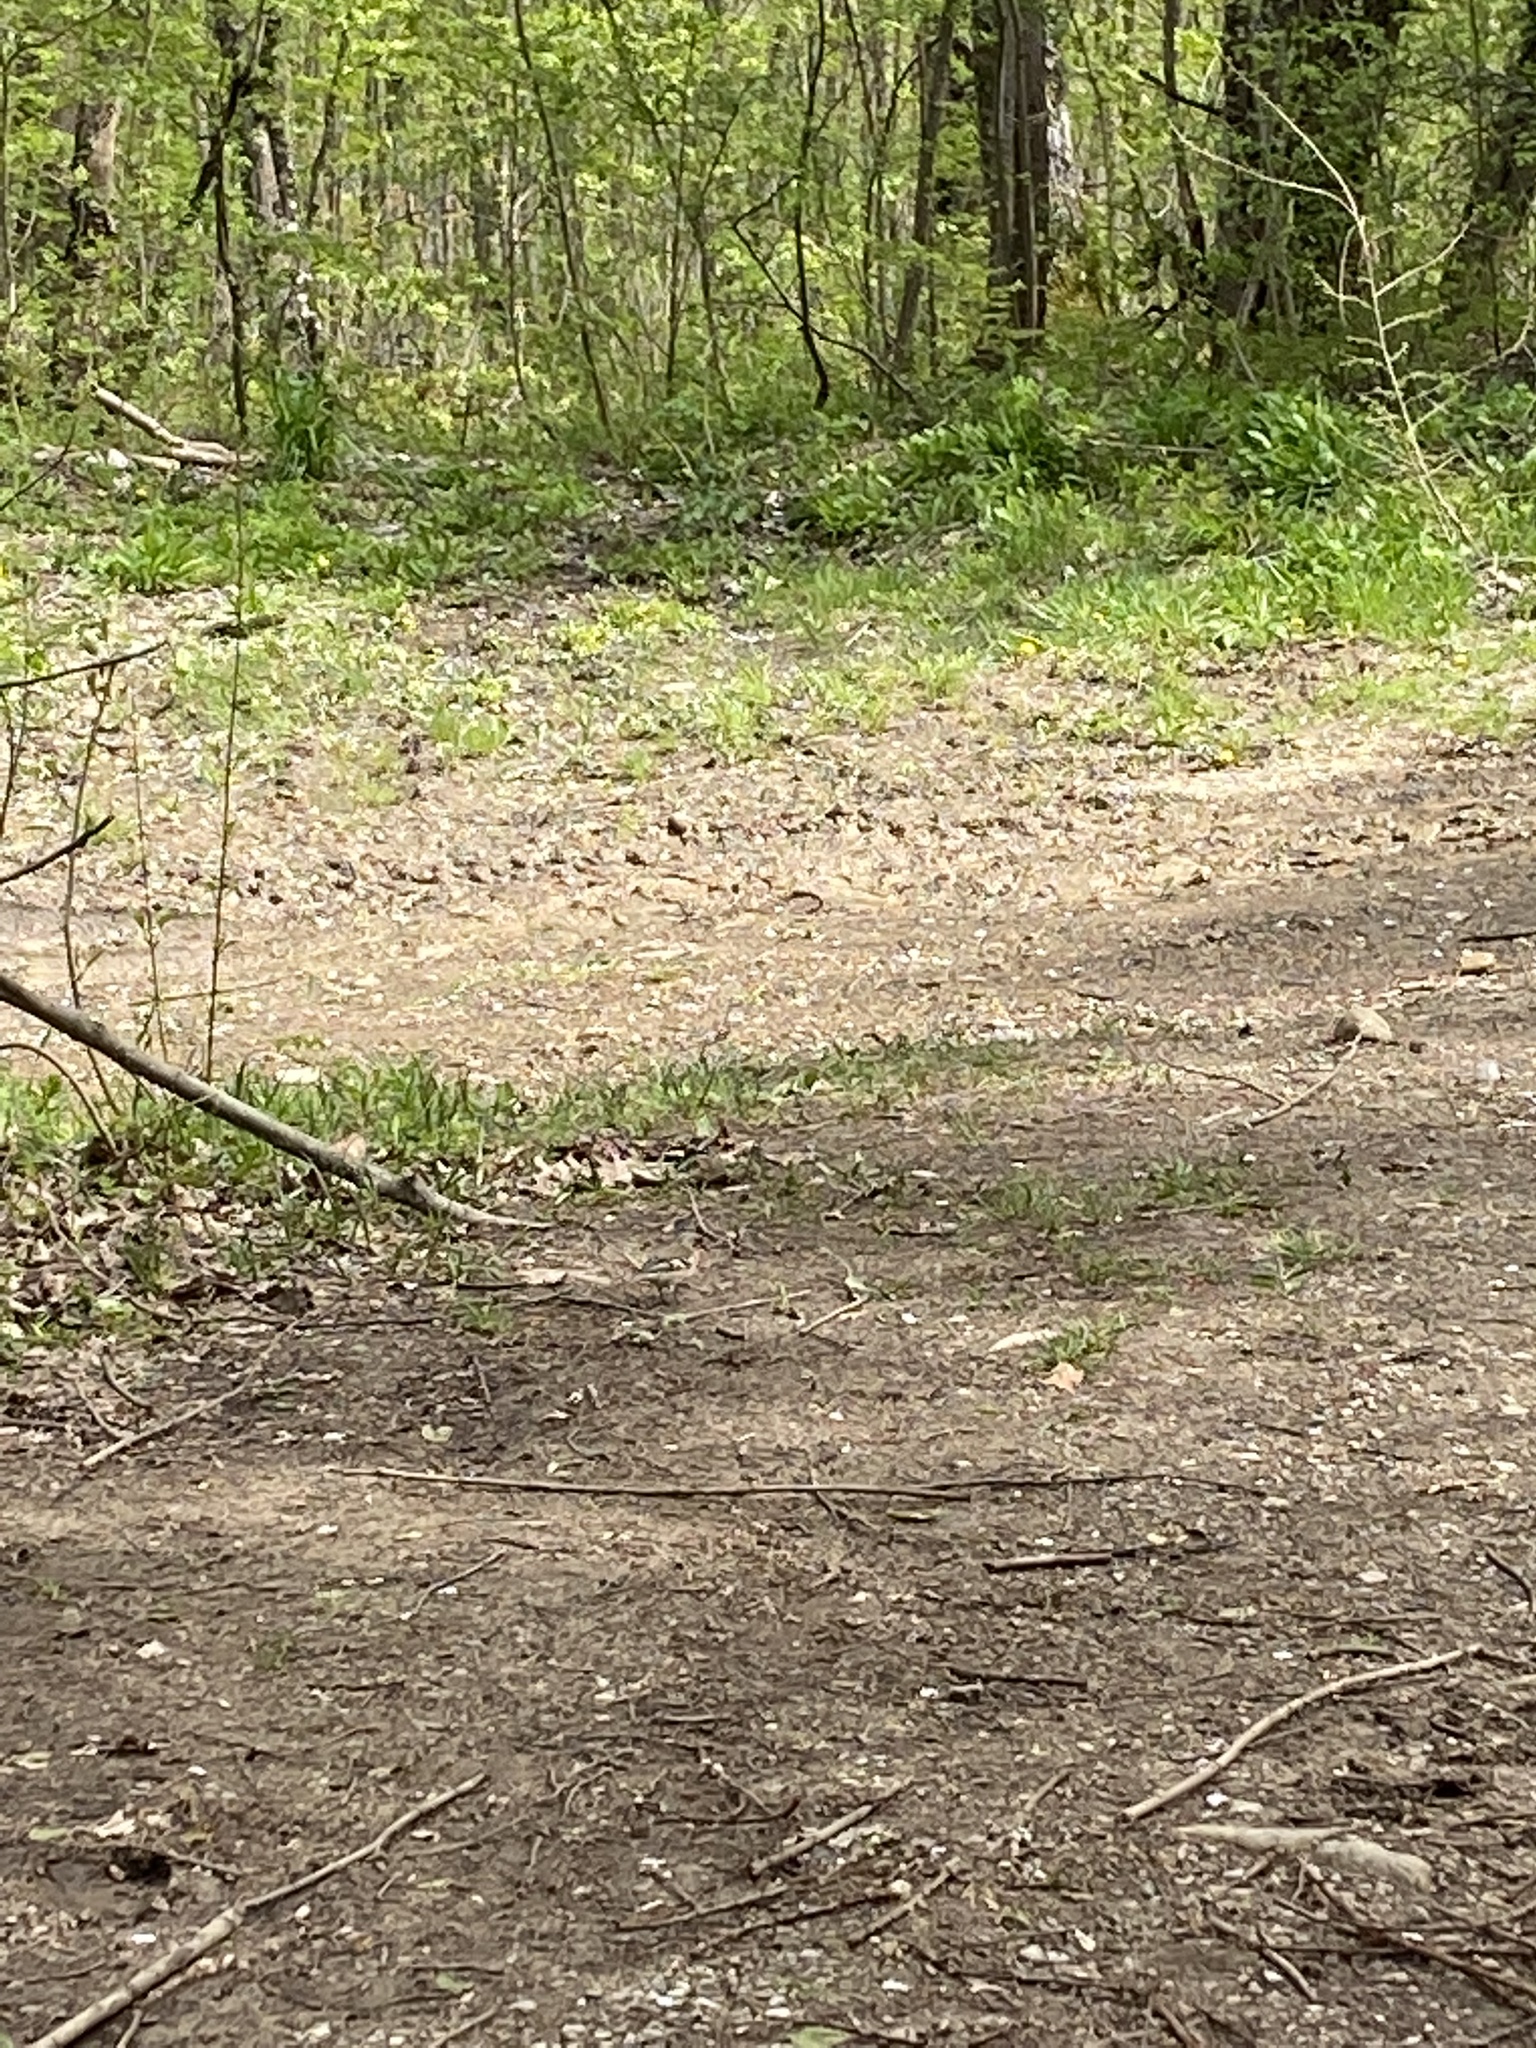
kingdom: Animalia
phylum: Chordata
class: Aves
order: Passeriformes
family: Fringillidae
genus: Fringilla
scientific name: Fringilla coelebs
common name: Common chaffinch
